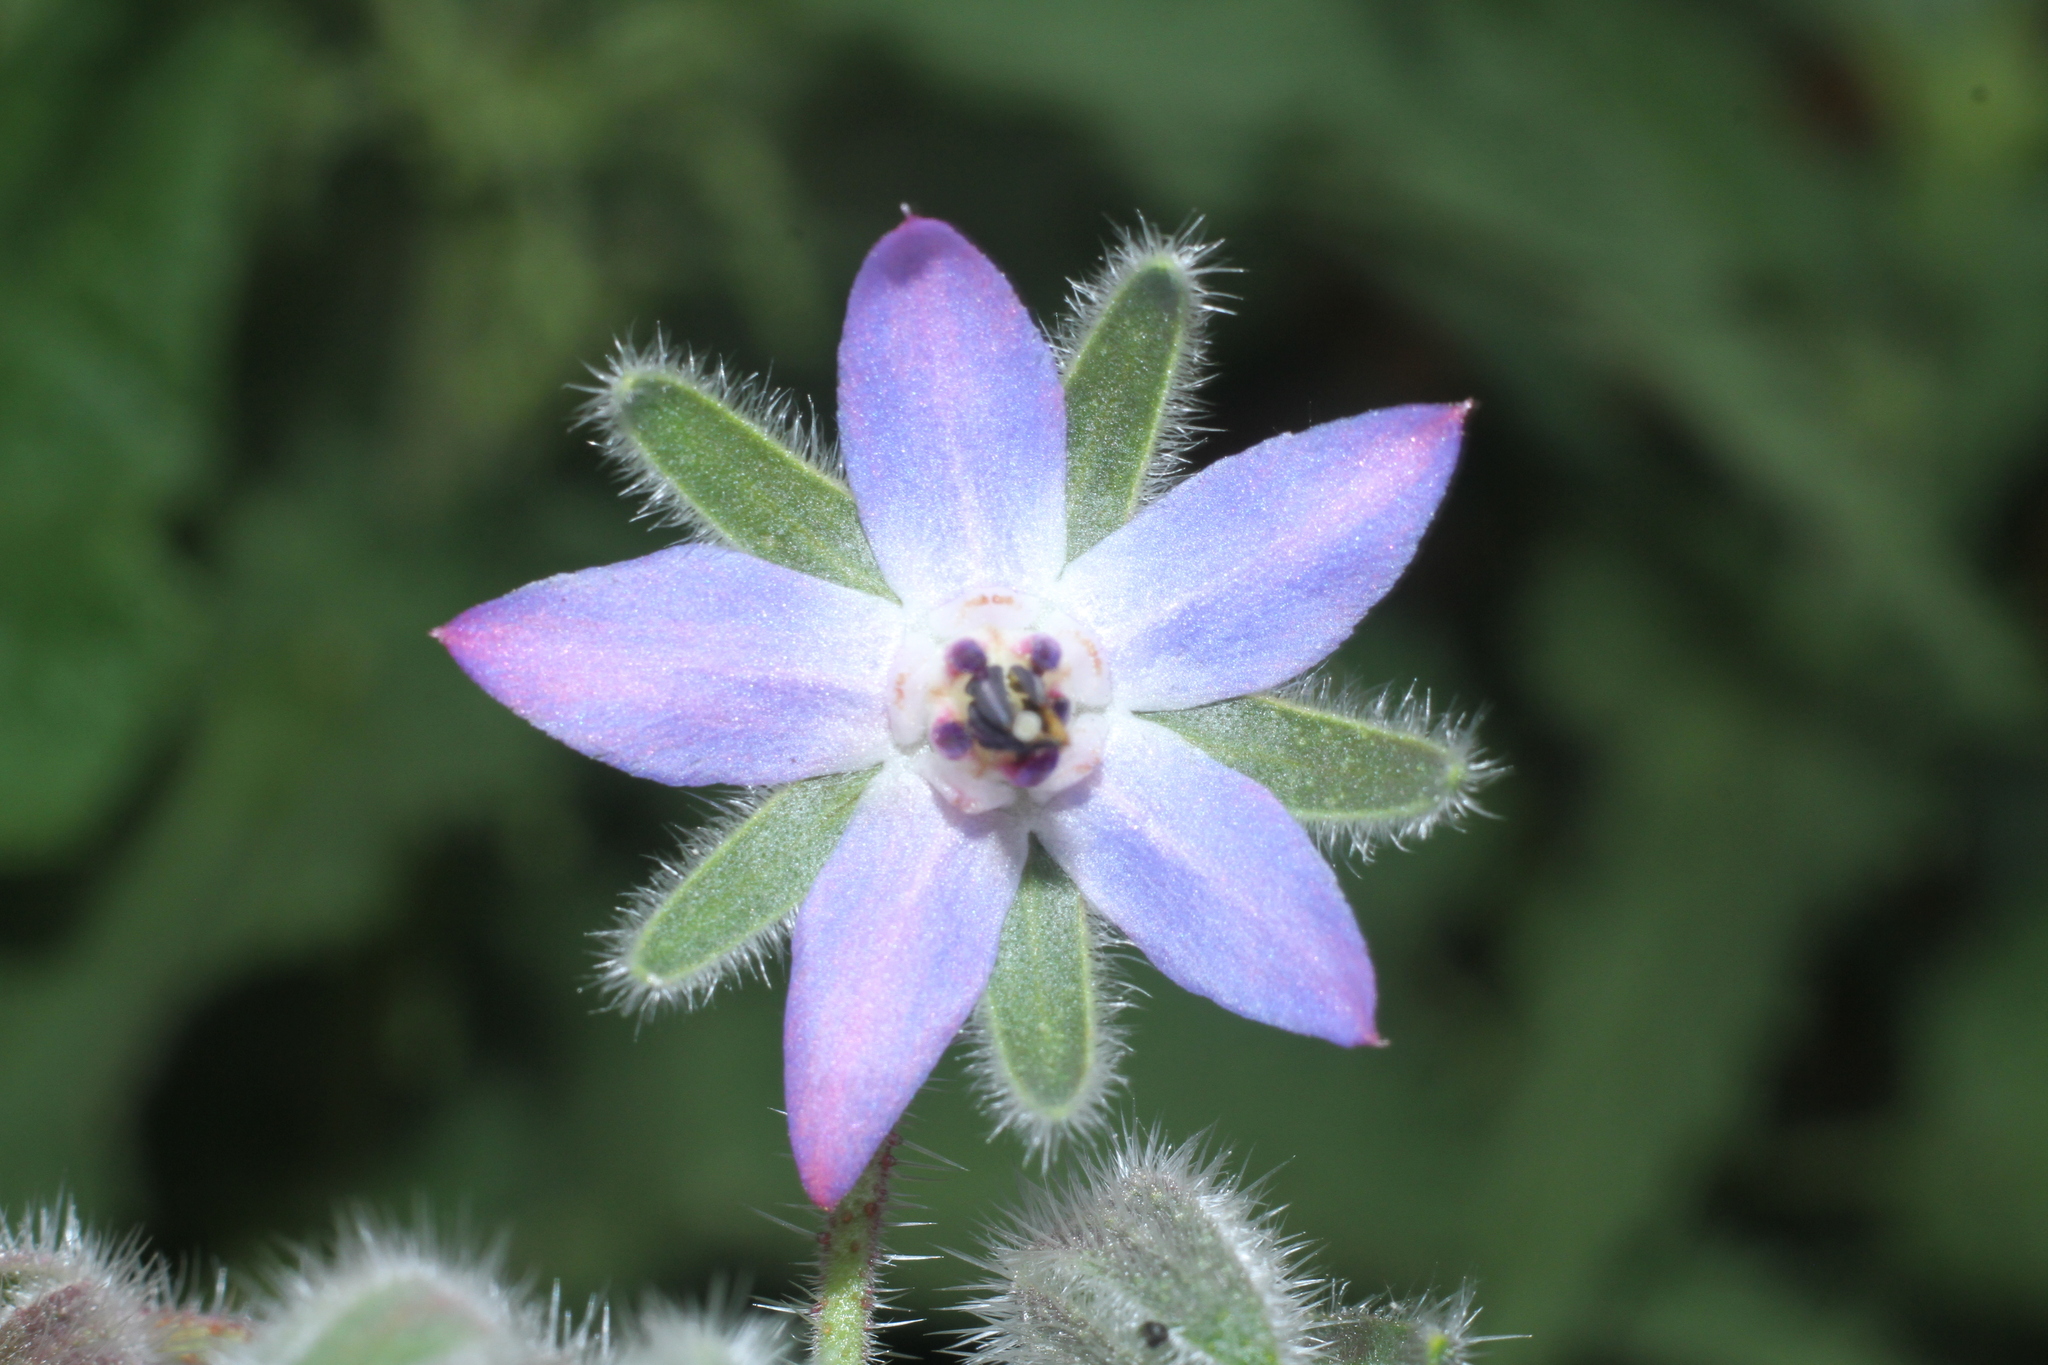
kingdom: Plantae
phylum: Tracheophyta
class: Magnoliopsida
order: Boraginales
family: Boraginaceae
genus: Borago
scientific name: Borago officinalis
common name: Borage
